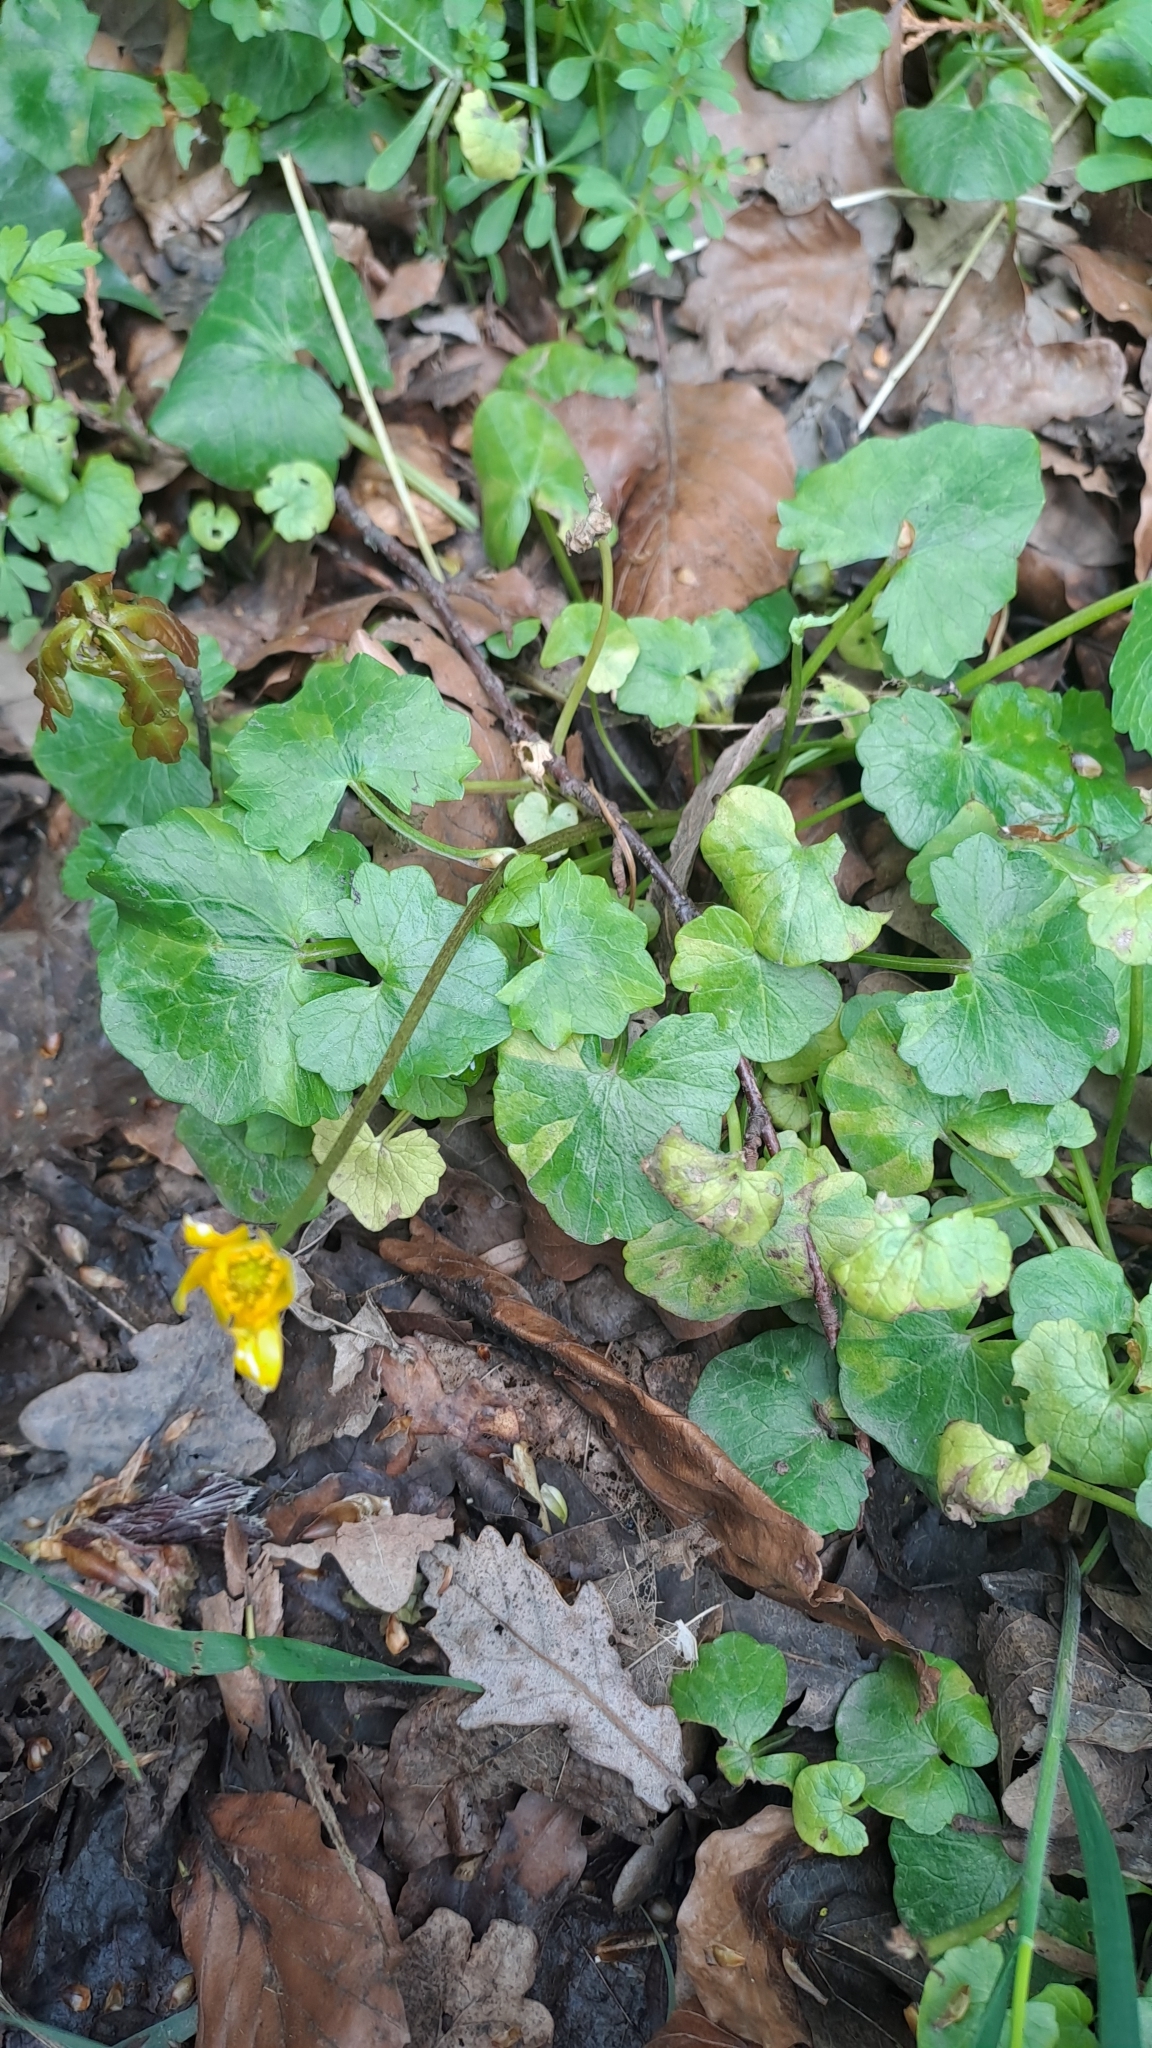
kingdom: Plantae
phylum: Tracheophyta
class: Magnoliopsida
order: Ranunculales
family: Ranunculaceae
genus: Ficaria
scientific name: Ficaria verna
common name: Lesser celandine
